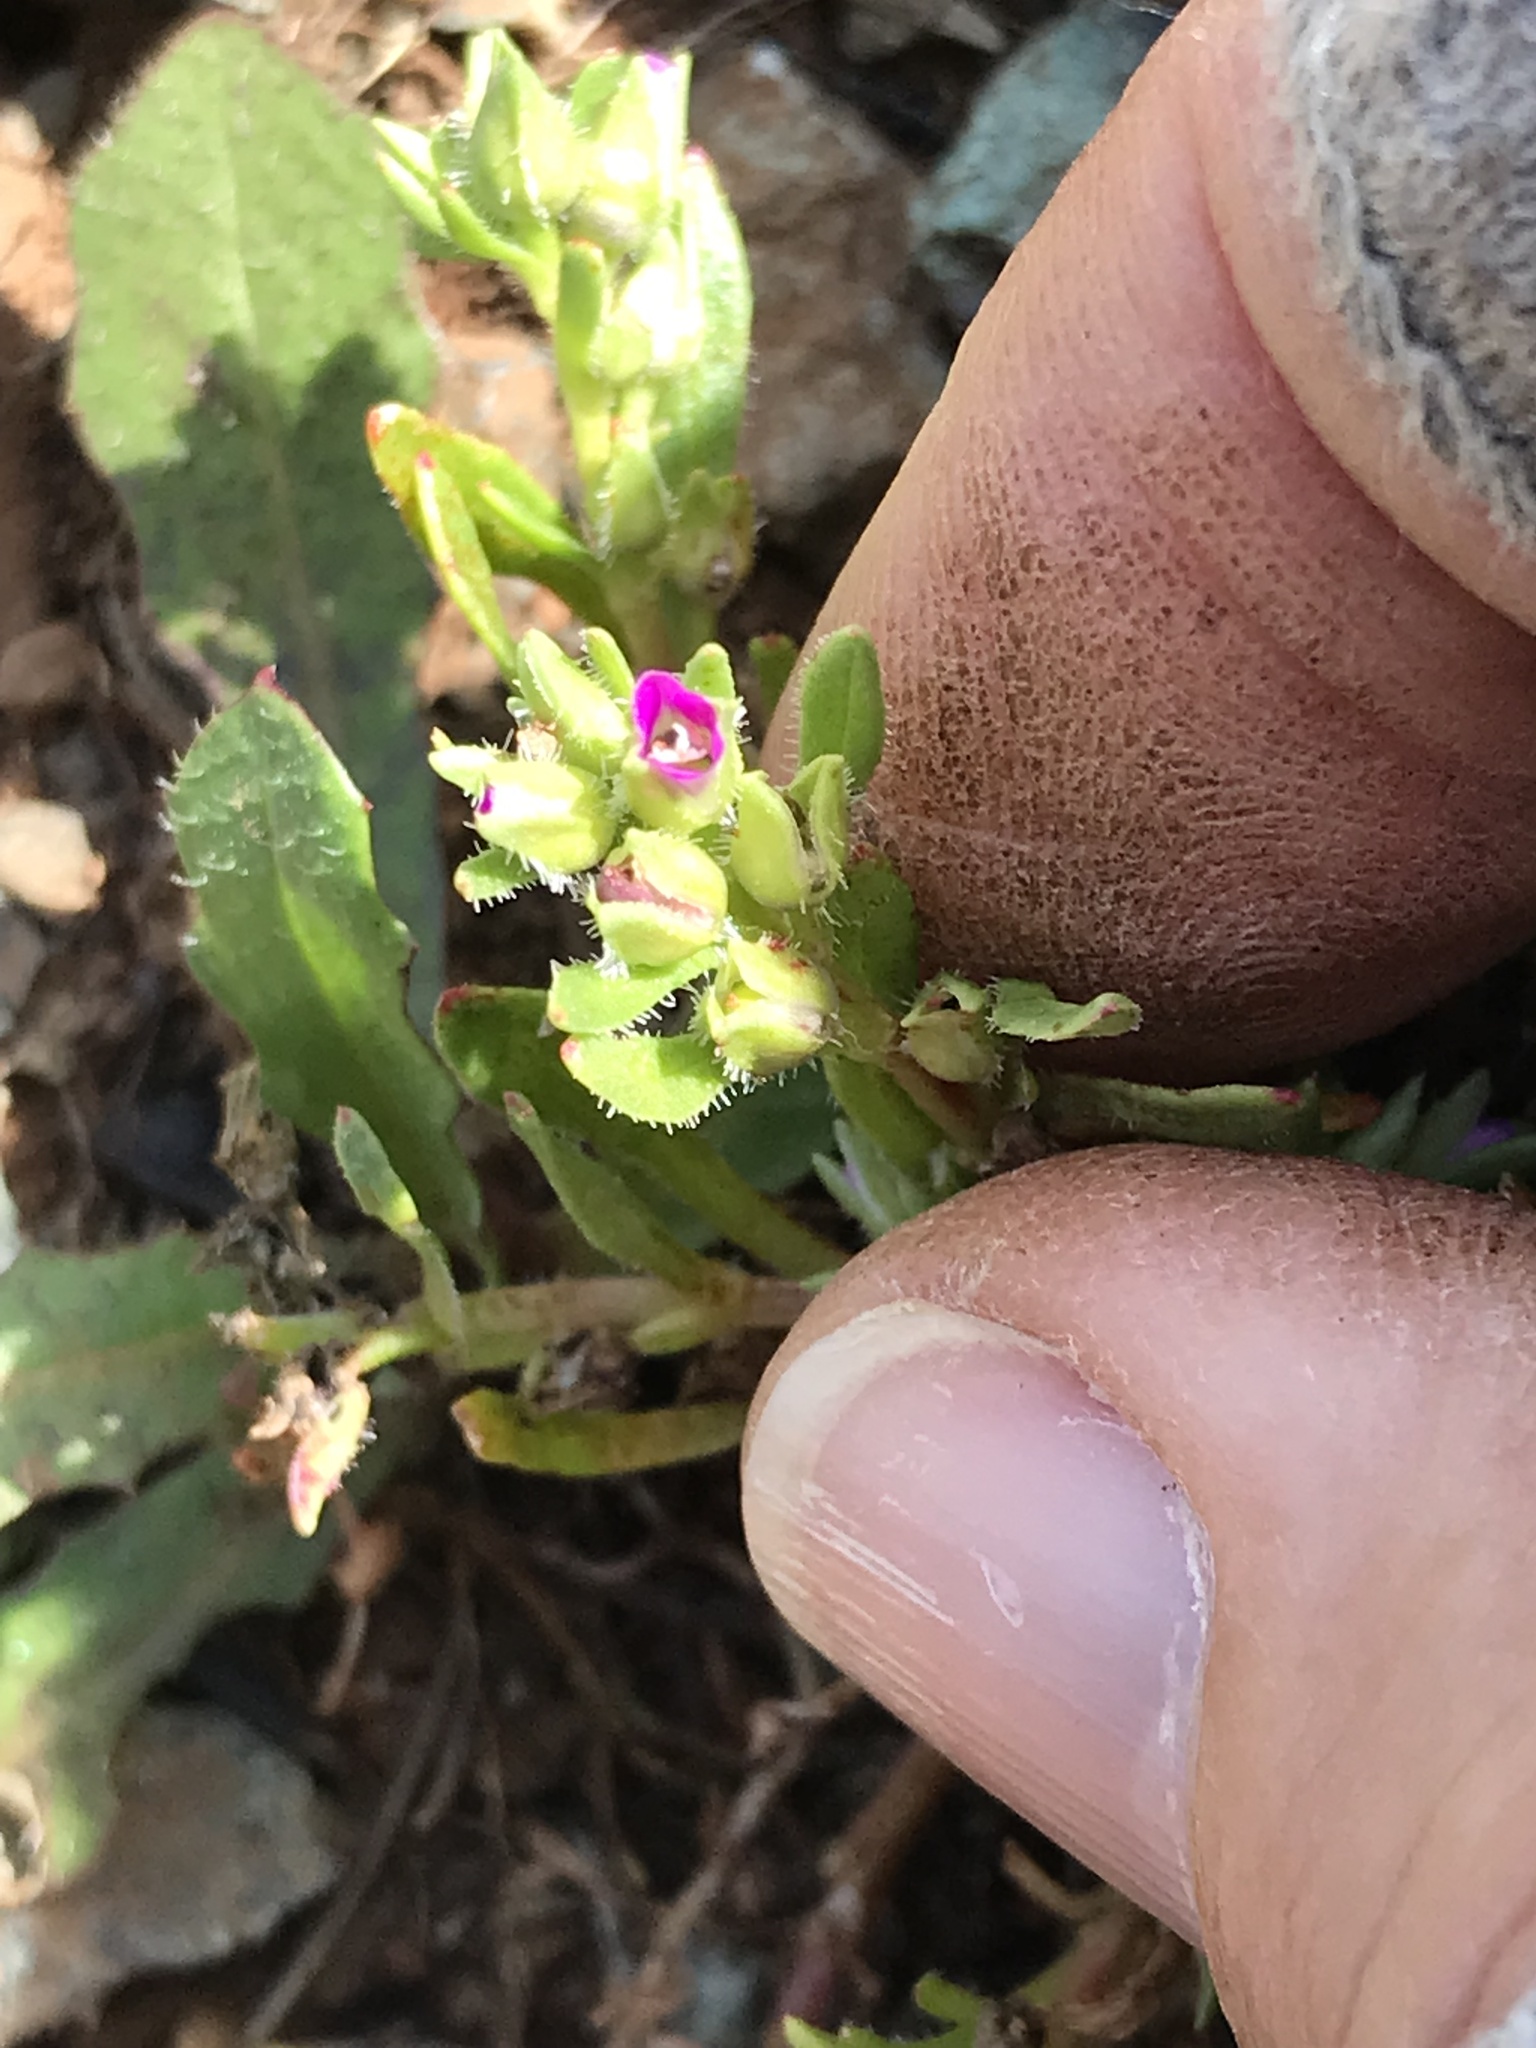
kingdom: Plantae
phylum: Tracheophyta
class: Magnoliopsida
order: Caryophyllales
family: Montiaceae
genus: Calandrinia
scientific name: Calandrinia menziesii
